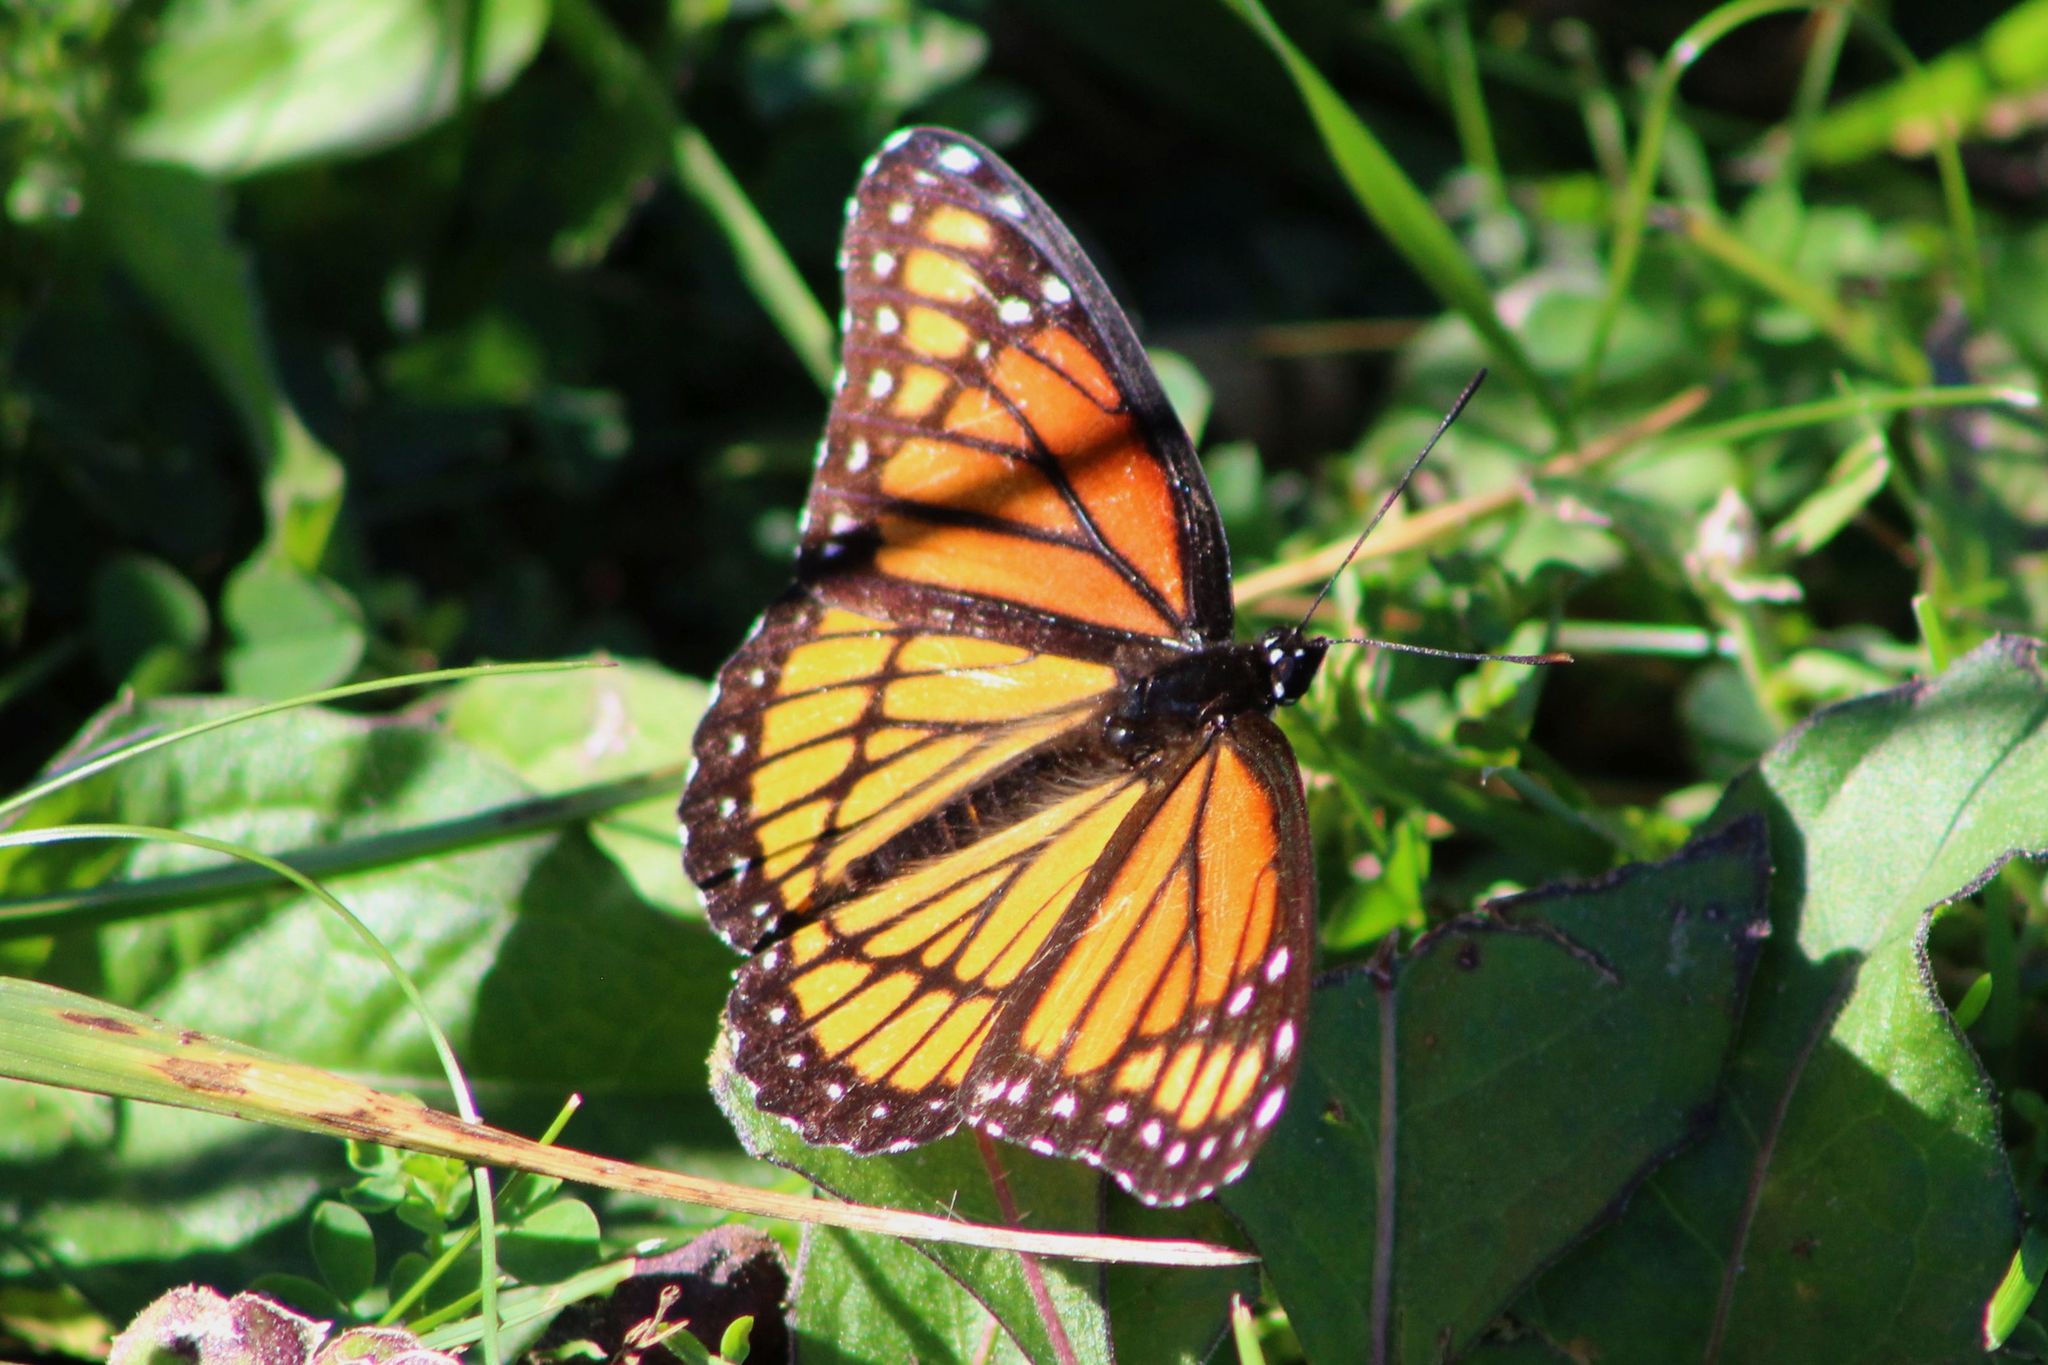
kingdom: Animalia
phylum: Arthropoda
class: Insecta
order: Lepidoptera
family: Nymphalidae
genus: Limenitis
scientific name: Limenitis archippus
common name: Viceroy
